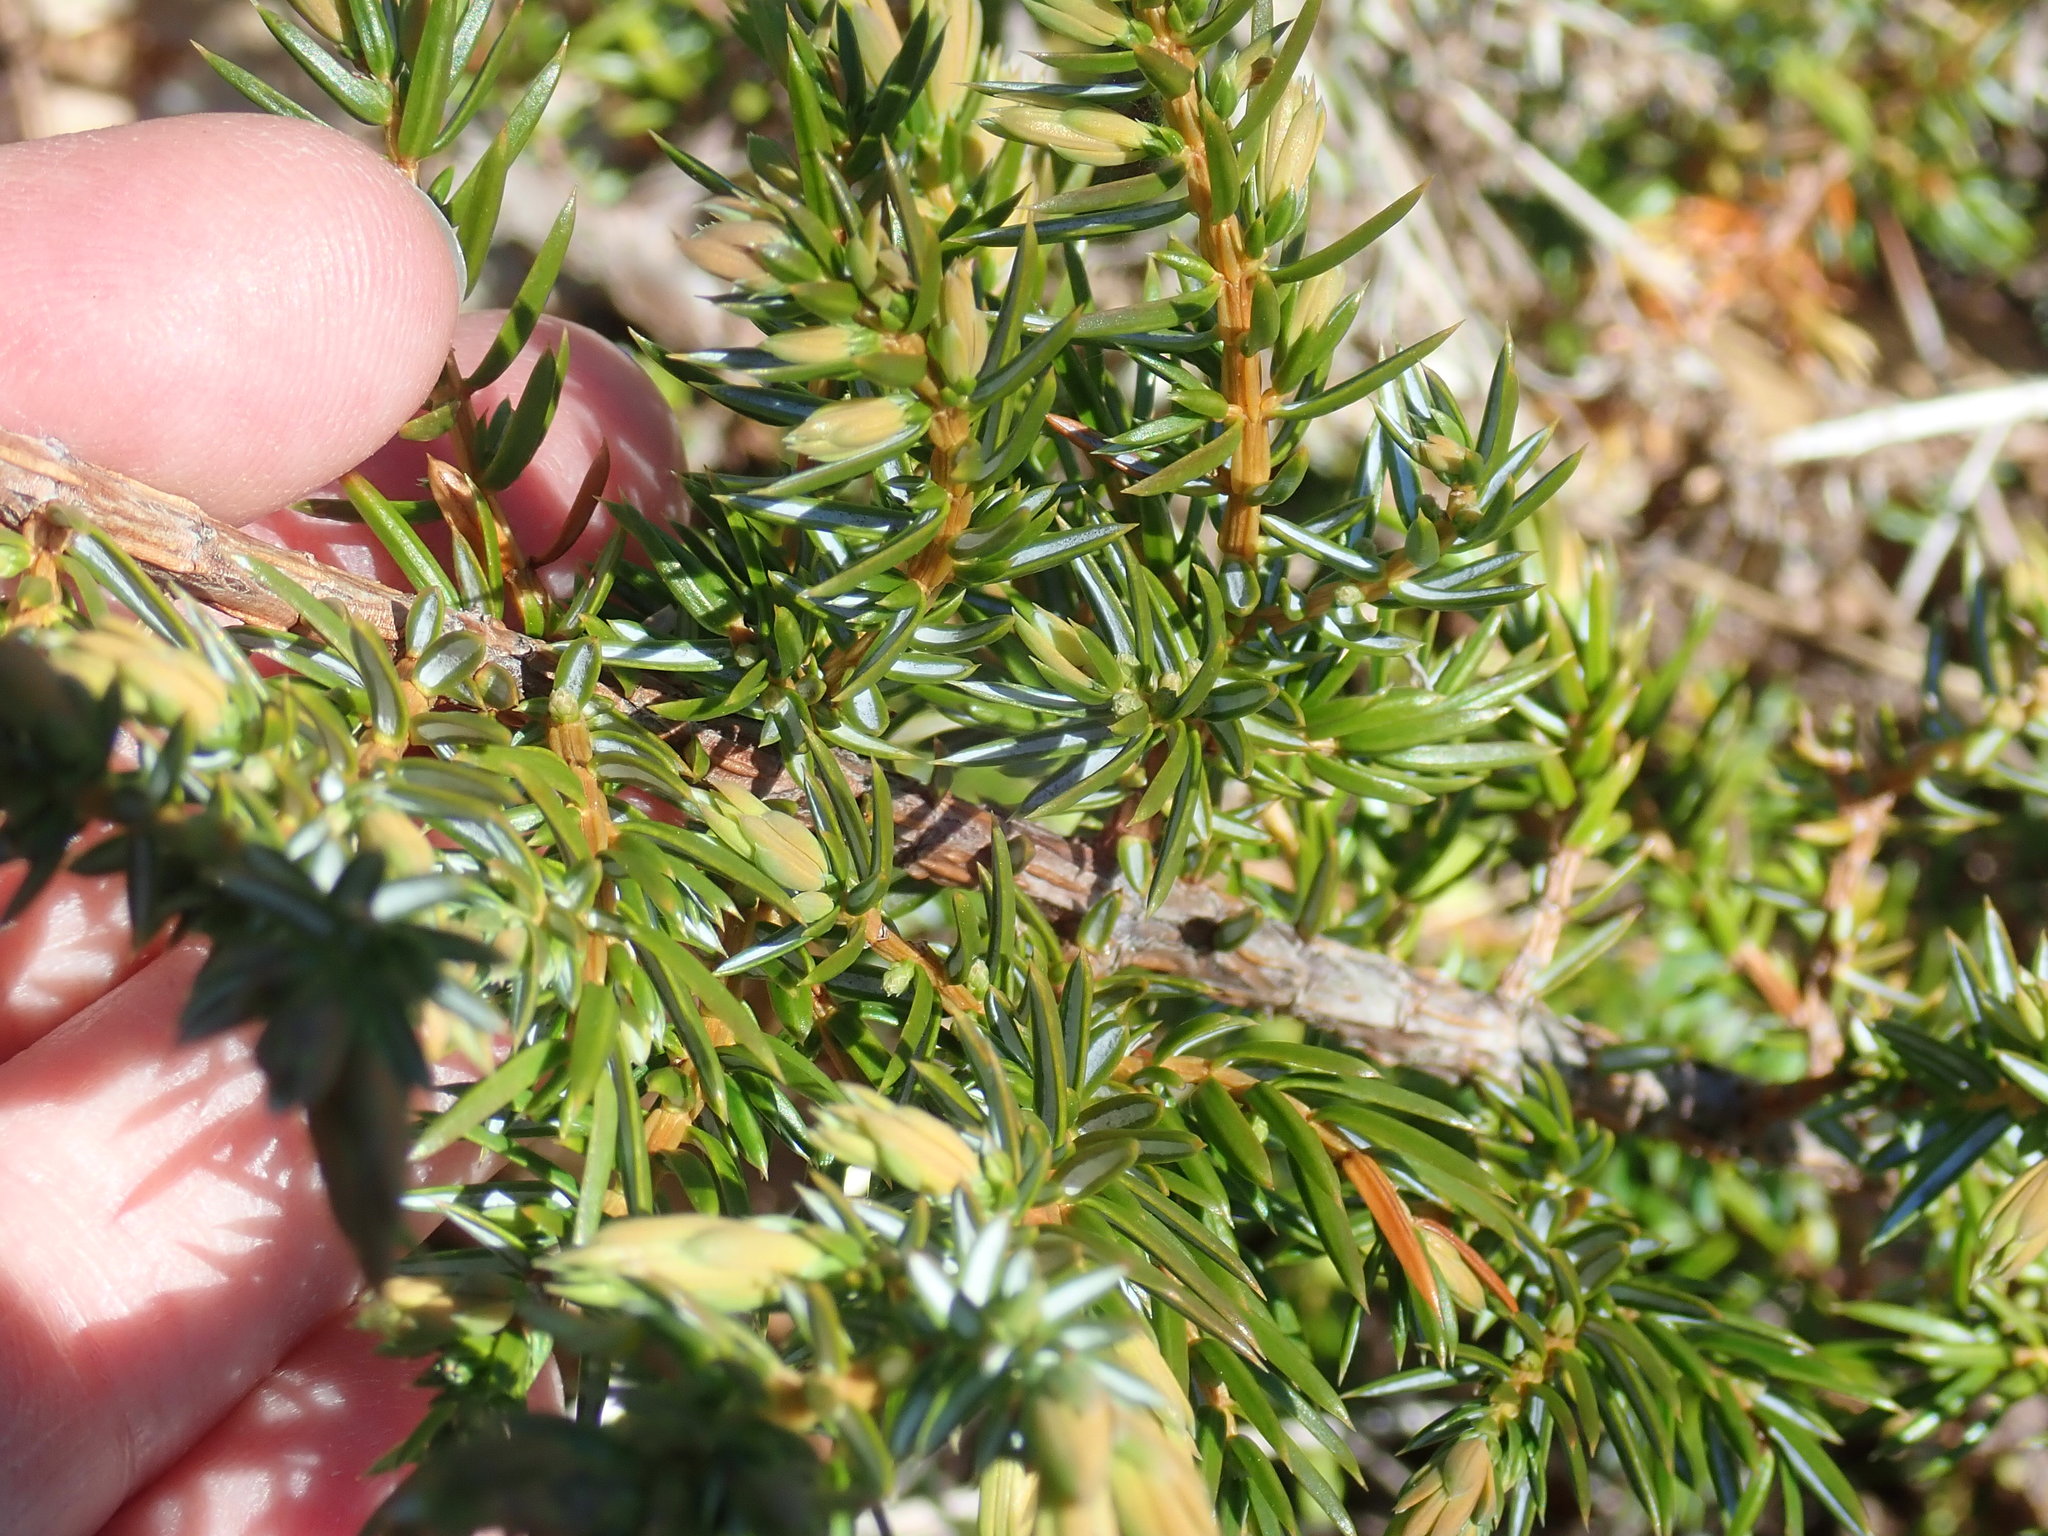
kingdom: Plantae
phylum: Tracheophyta
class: Pinopsida
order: Pinales
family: Cupressaceae
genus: Juniperus
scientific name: Juniperus communis
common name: Common juniper
